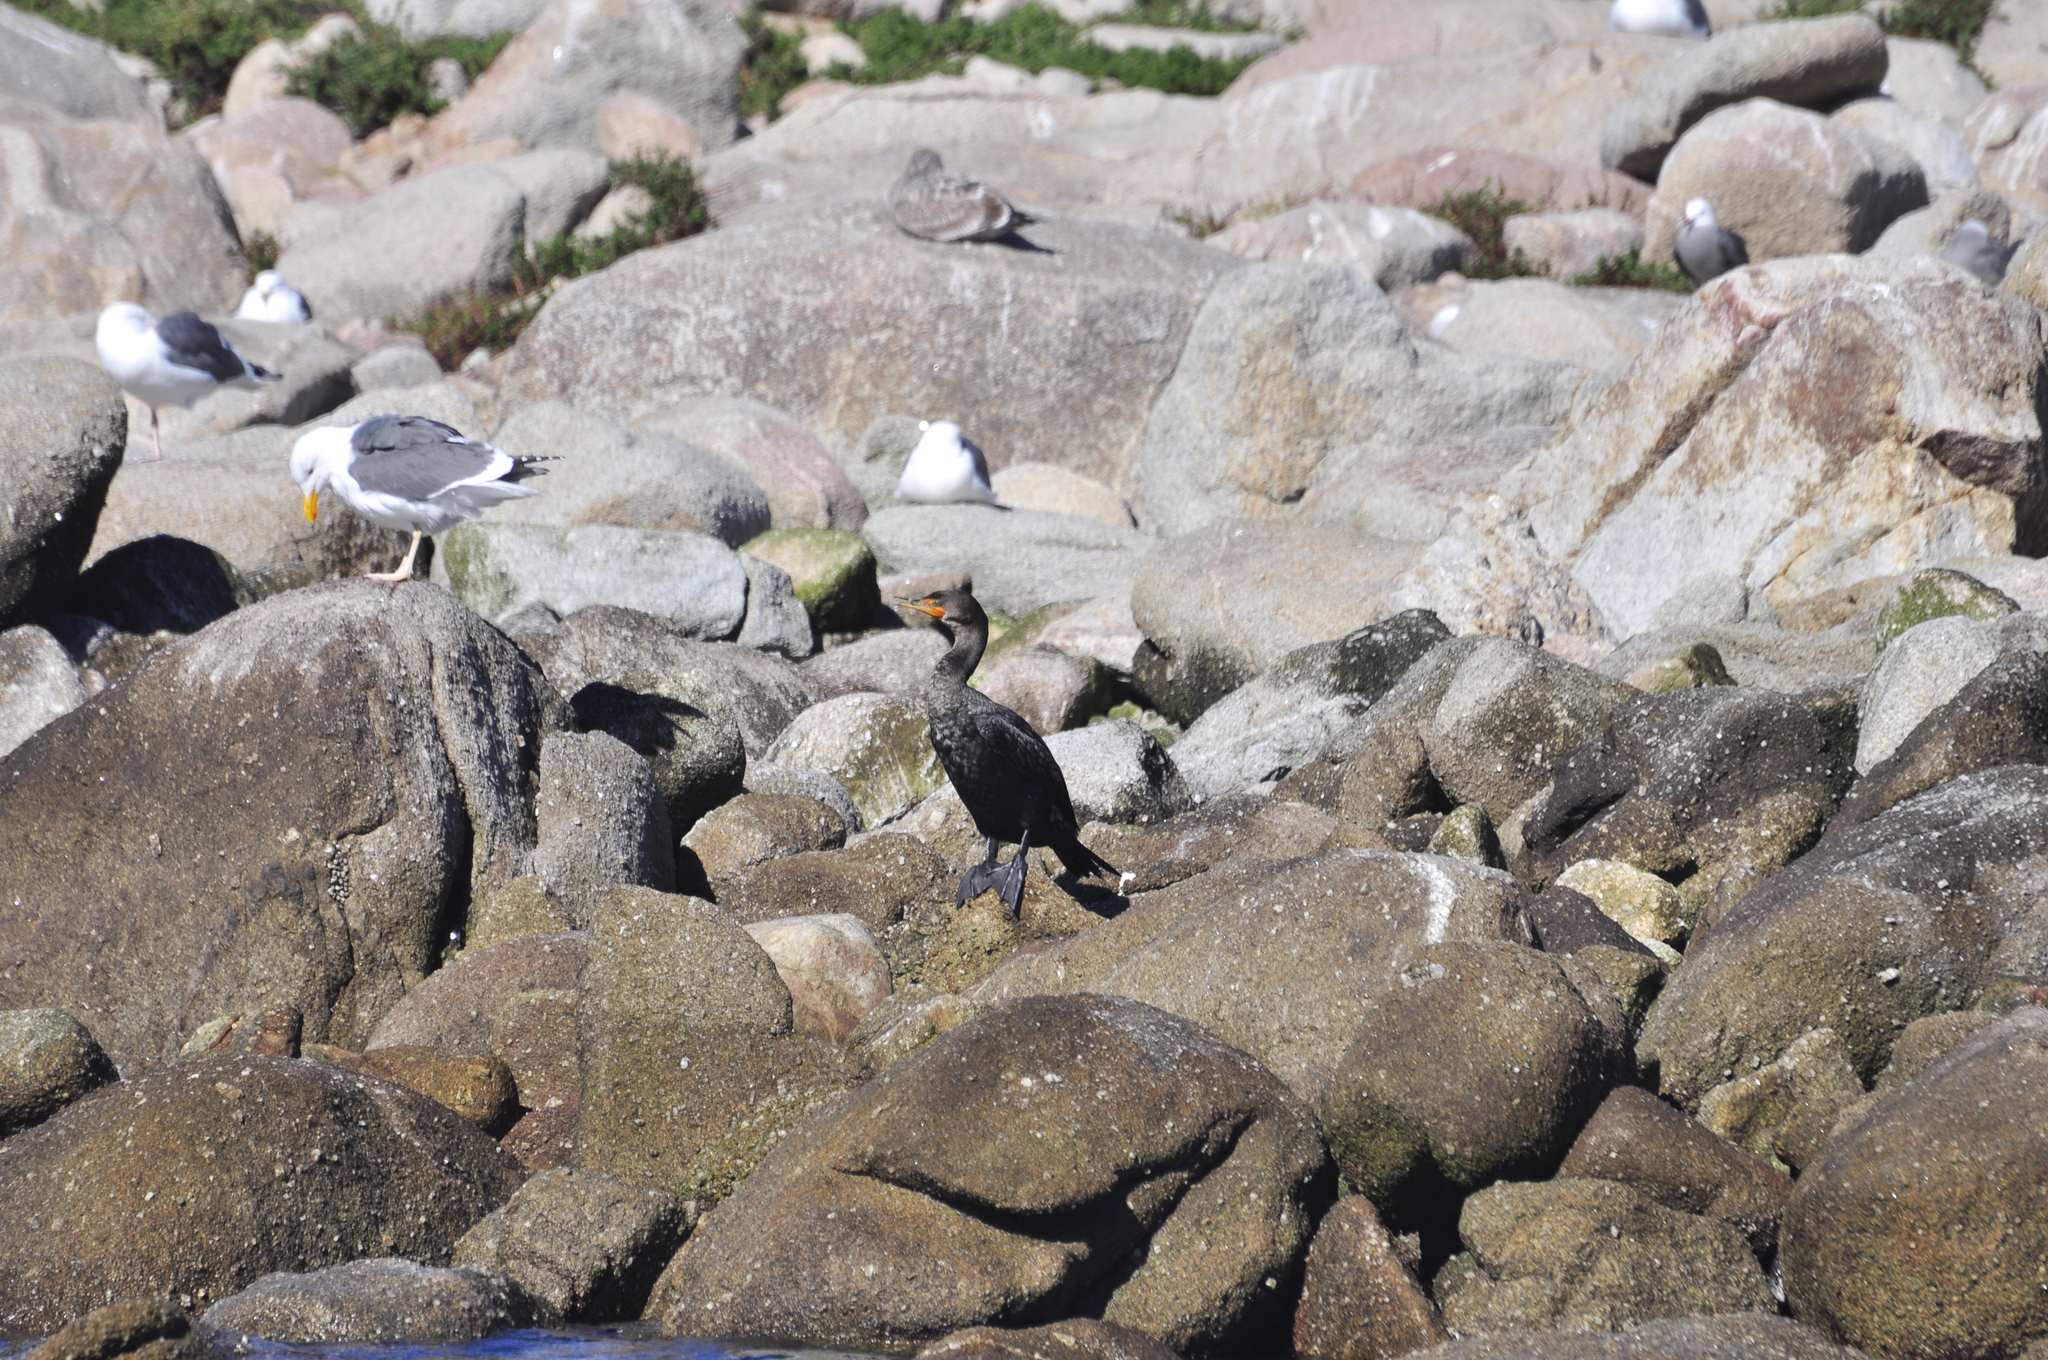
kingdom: Animalia
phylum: Chordata
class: Aves
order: Suliformes
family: Phalacrocoracidae
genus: Phalacrocorax
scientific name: Phalacrocorax auritus
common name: Double-crested cormorant
